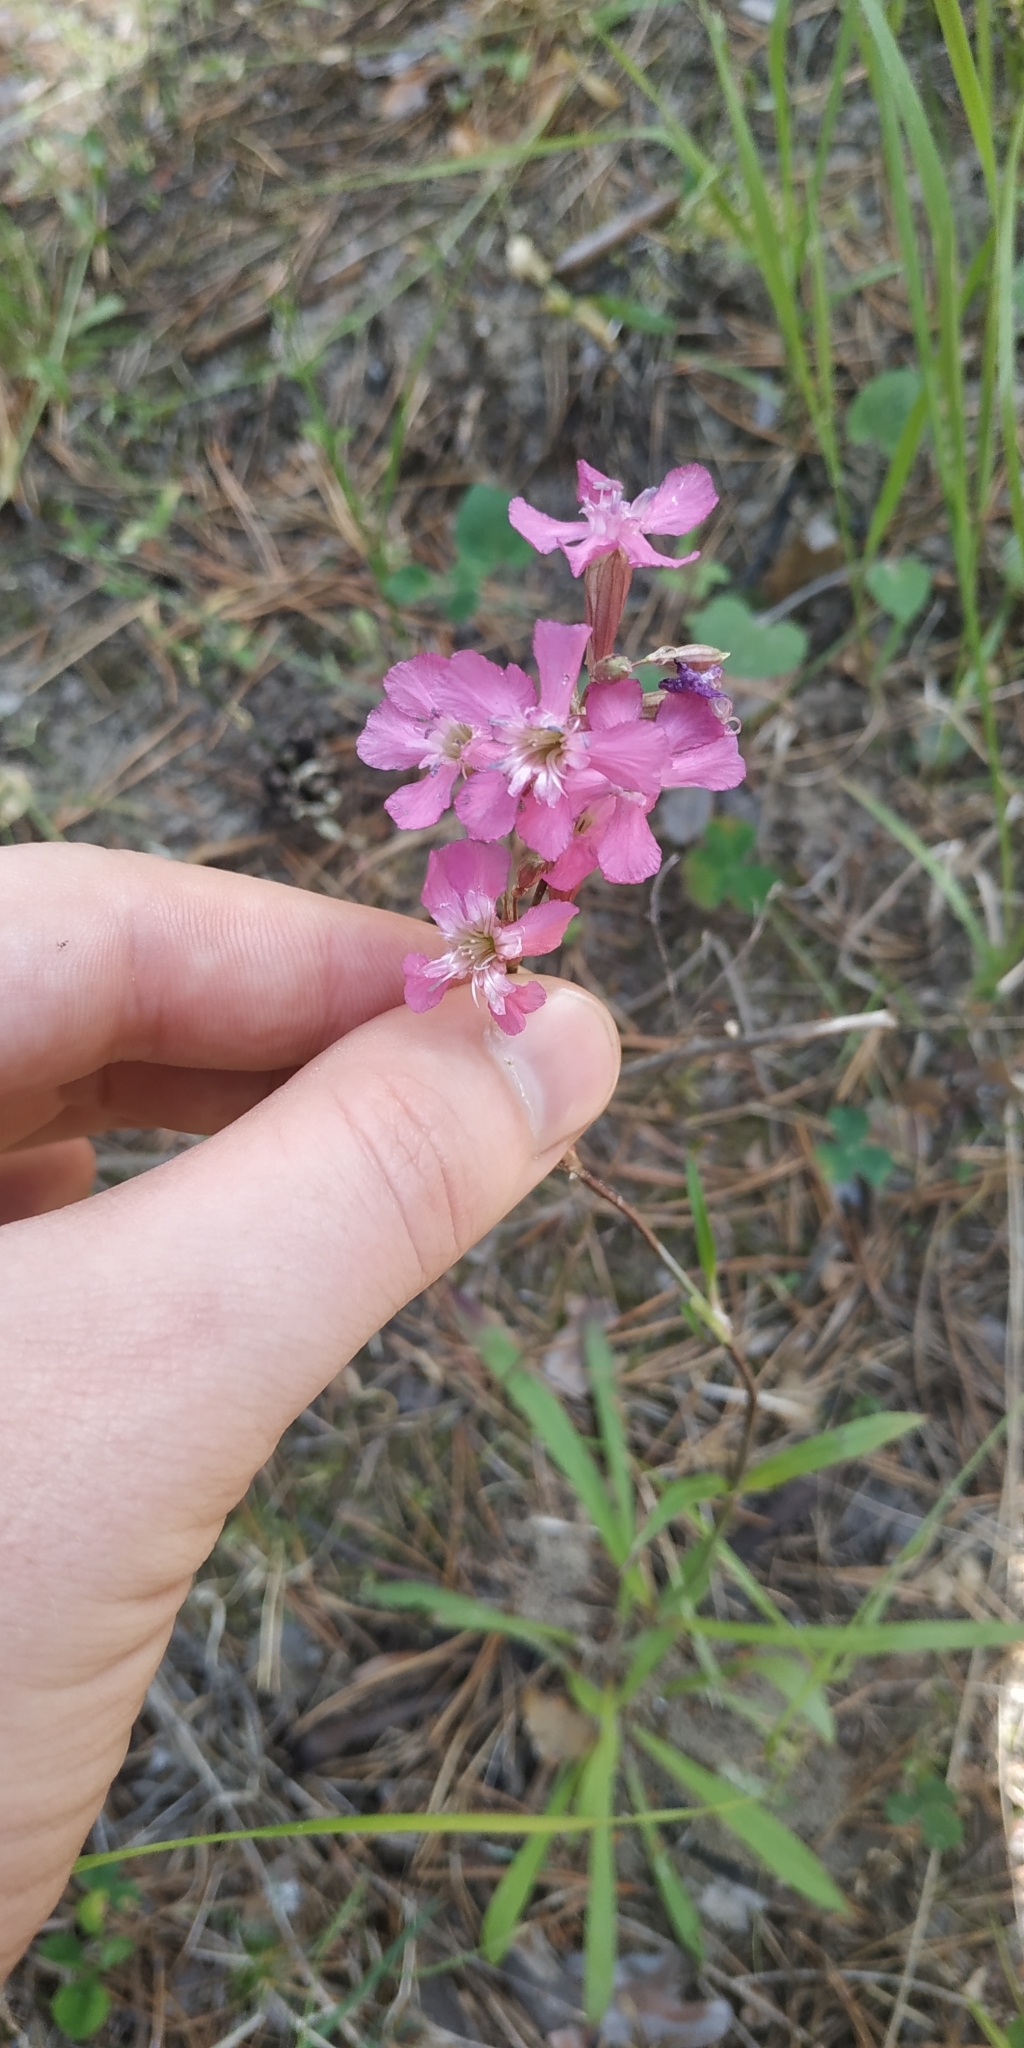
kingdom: Plantae
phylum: Tracheophyta
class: Magnoliopsida
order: Caryophyllales
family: Caryophyllaceae
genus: Viscaria
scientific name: Viscaria vulgaris
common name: Clammy campion
